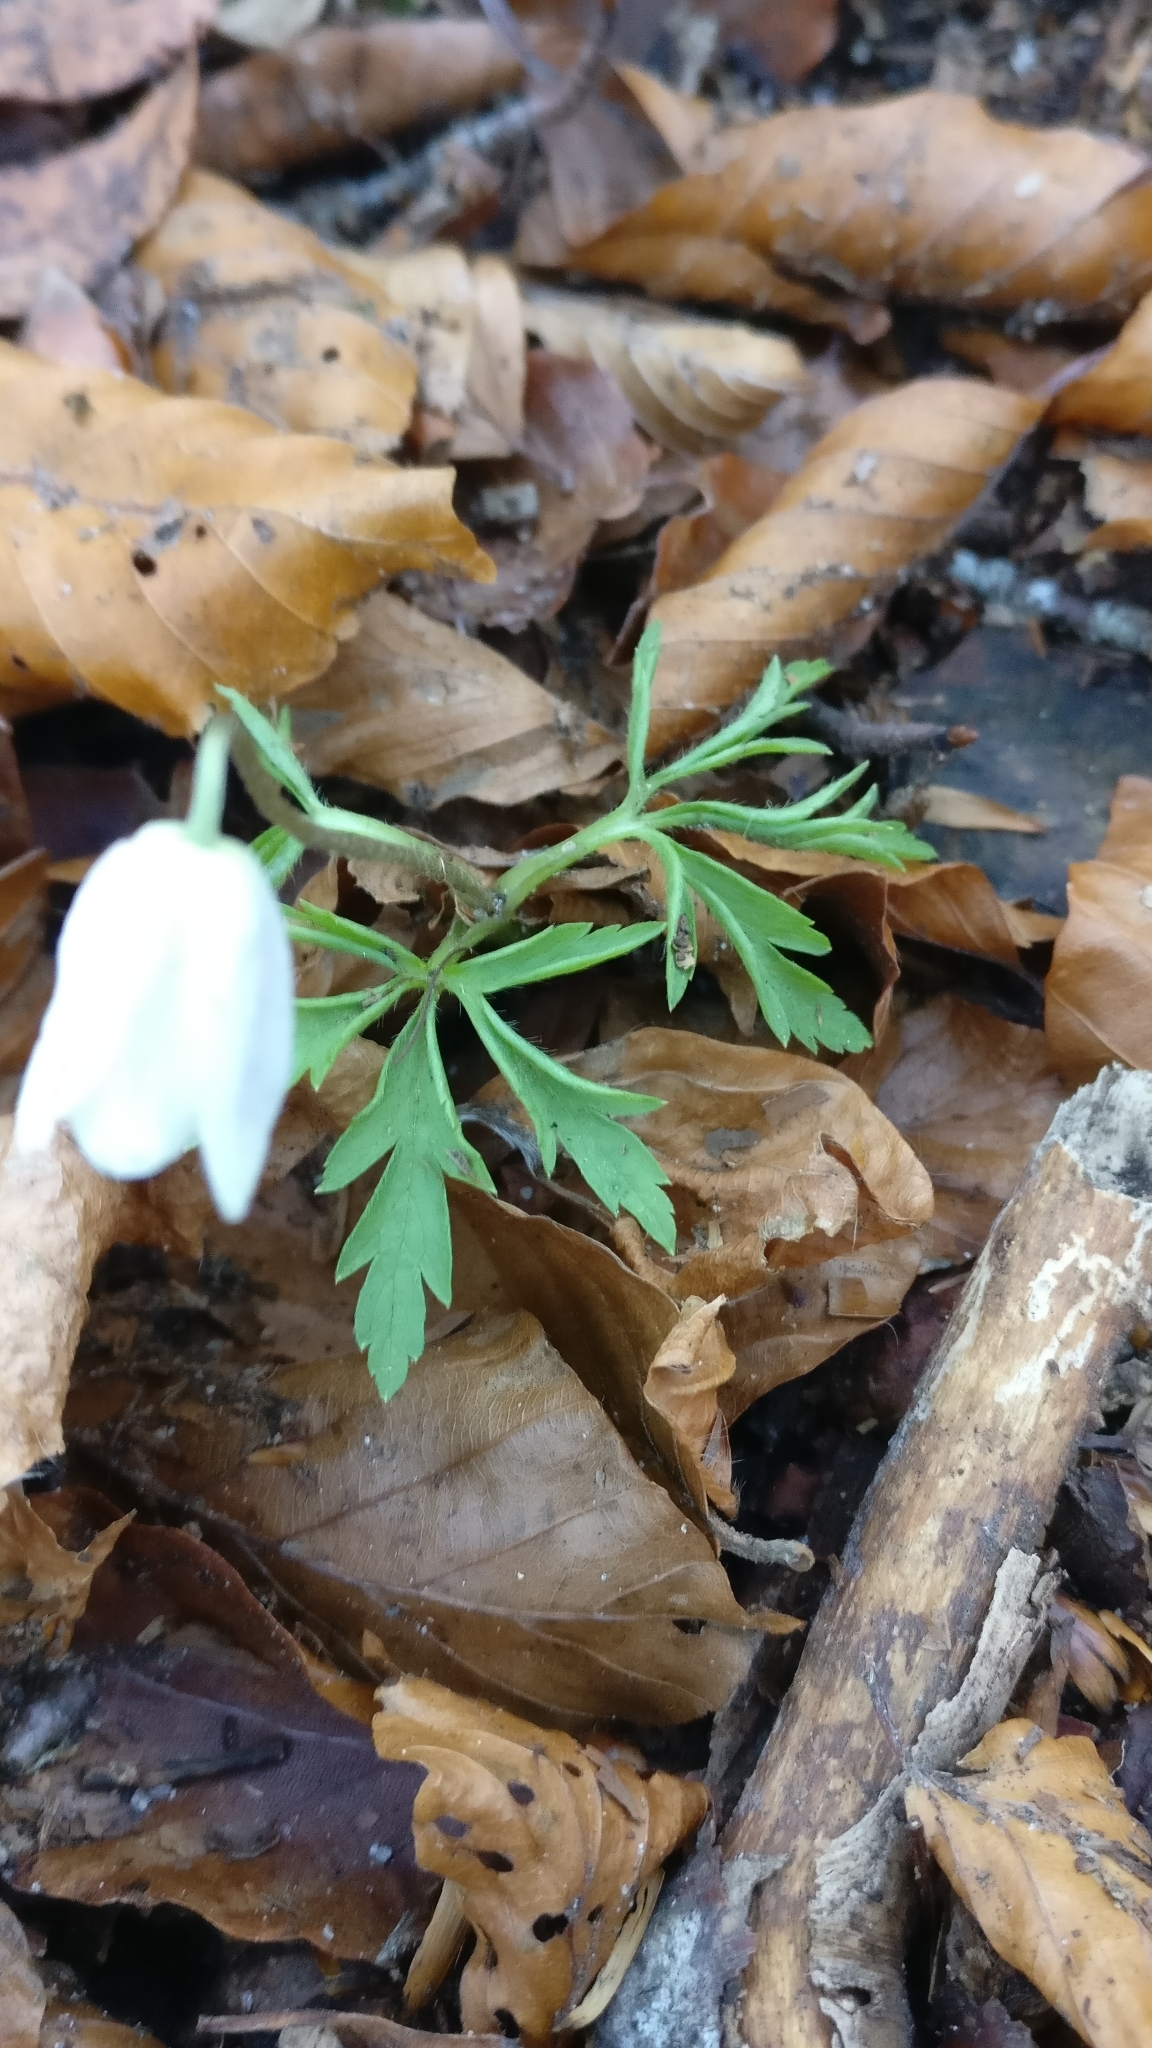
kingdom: Plantae
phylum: Tracheophyta
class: Magnoliopsida
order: Ranunculales
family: Ranunculaceae
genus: Anemone
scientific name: Anemone nemorosa
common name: Wood anemone
